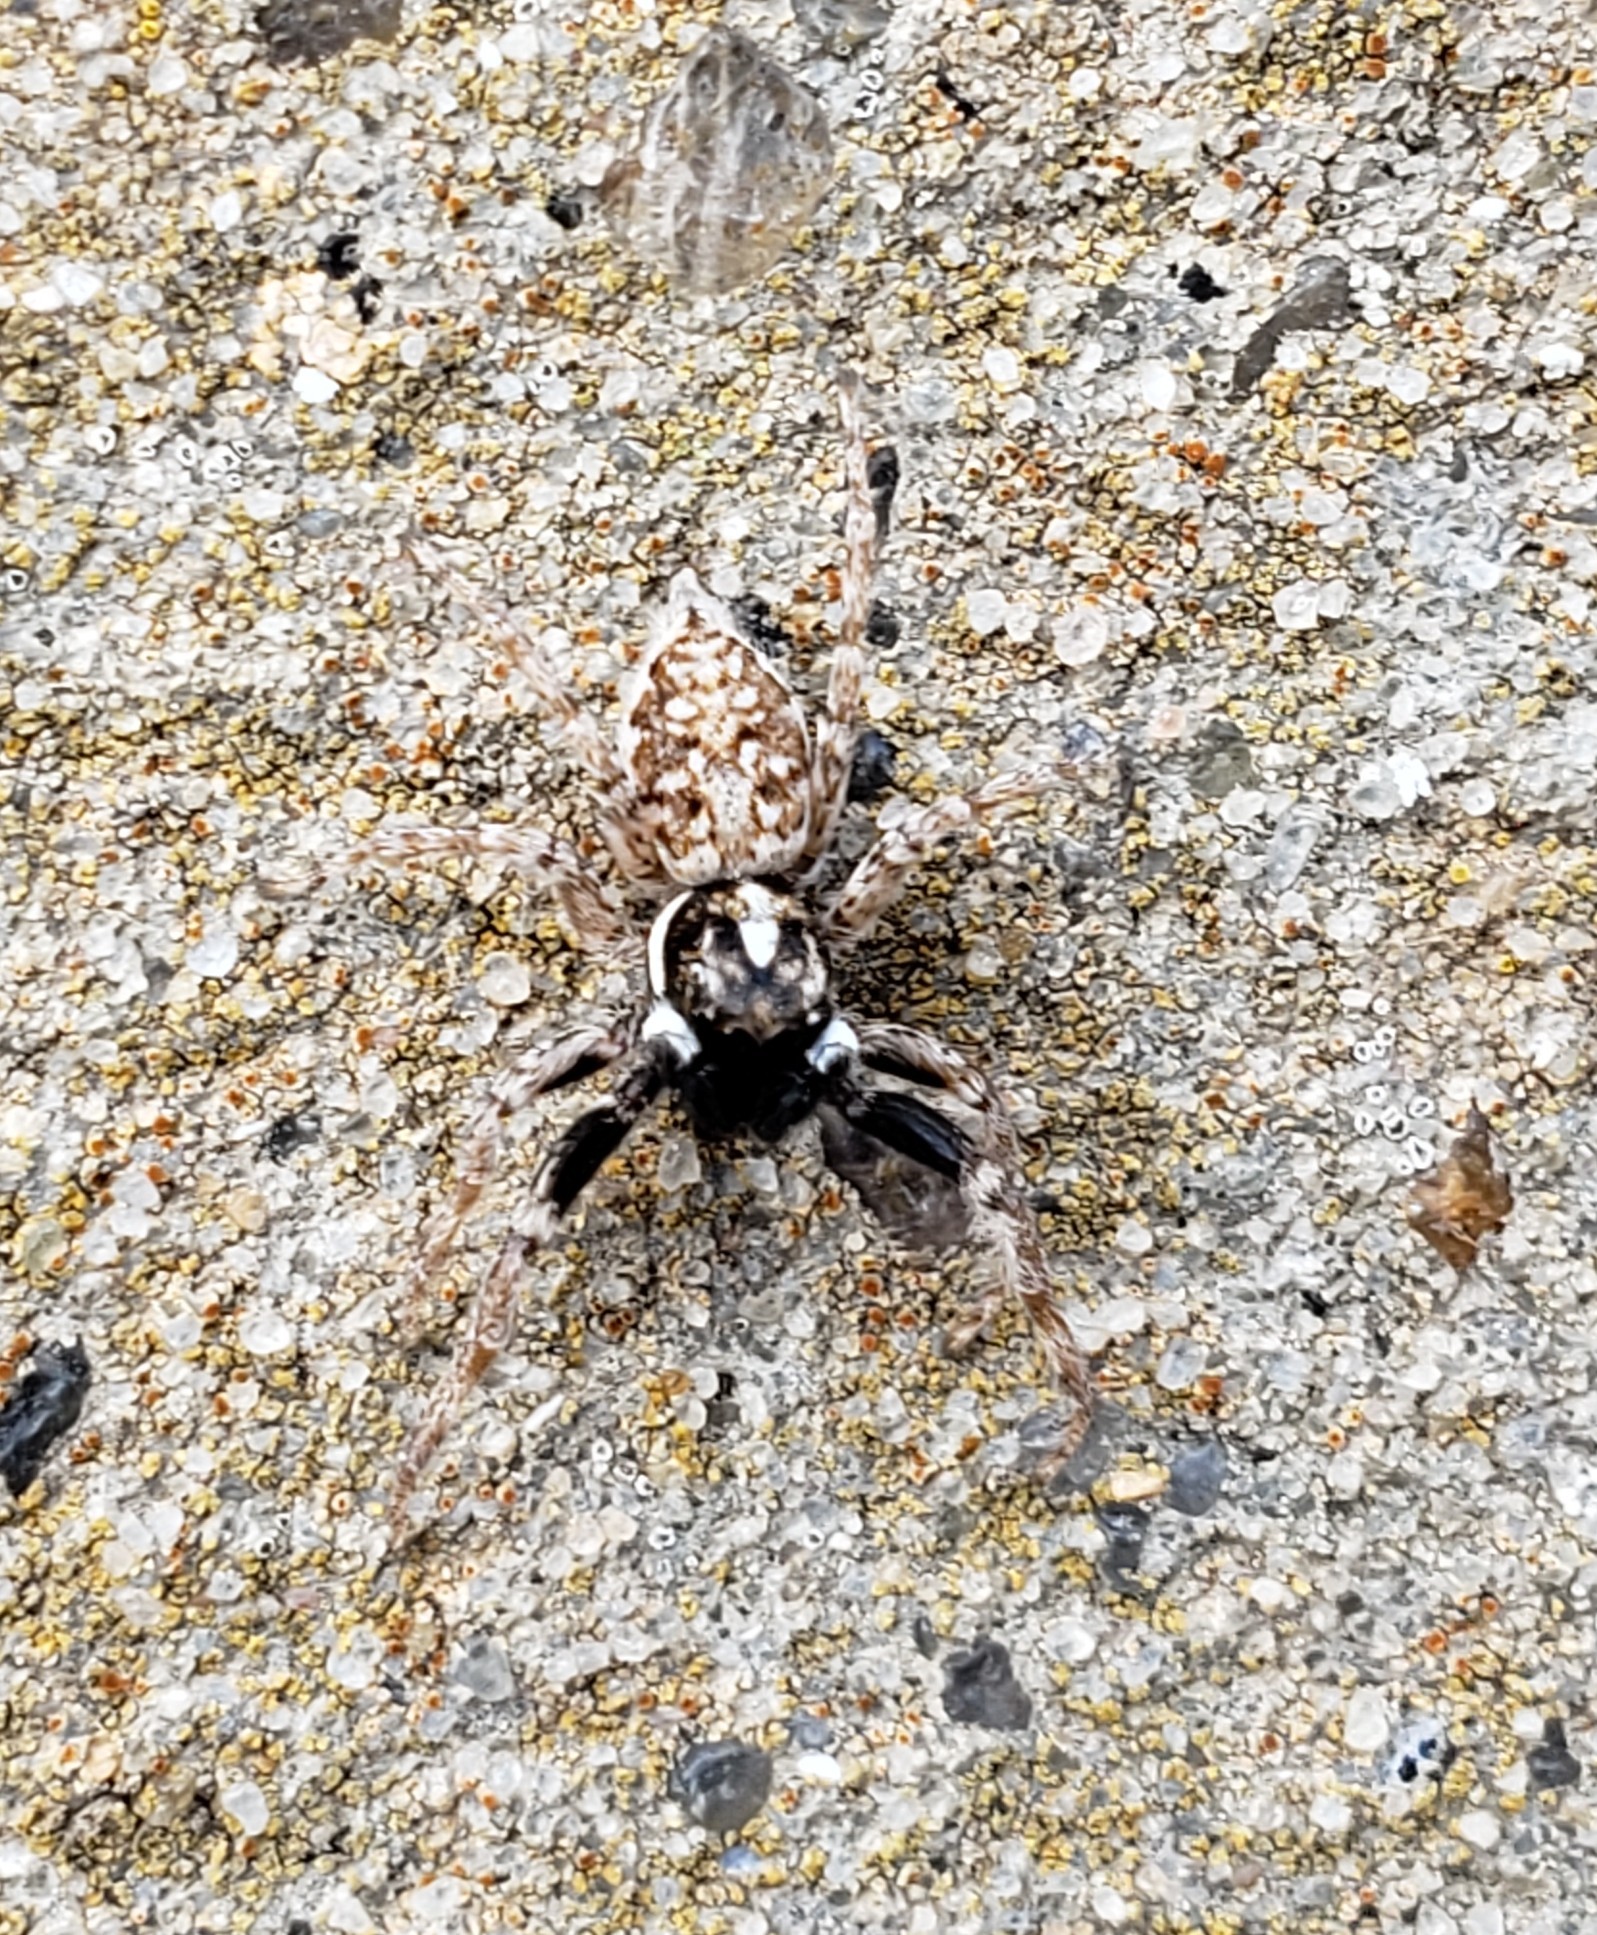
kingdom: Animalia
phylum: Arthropoda
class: Arachnida
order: Araneae
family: Salticidae
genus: Menemerus
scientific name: Menemerus semilimbatus
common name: Jumping spider
